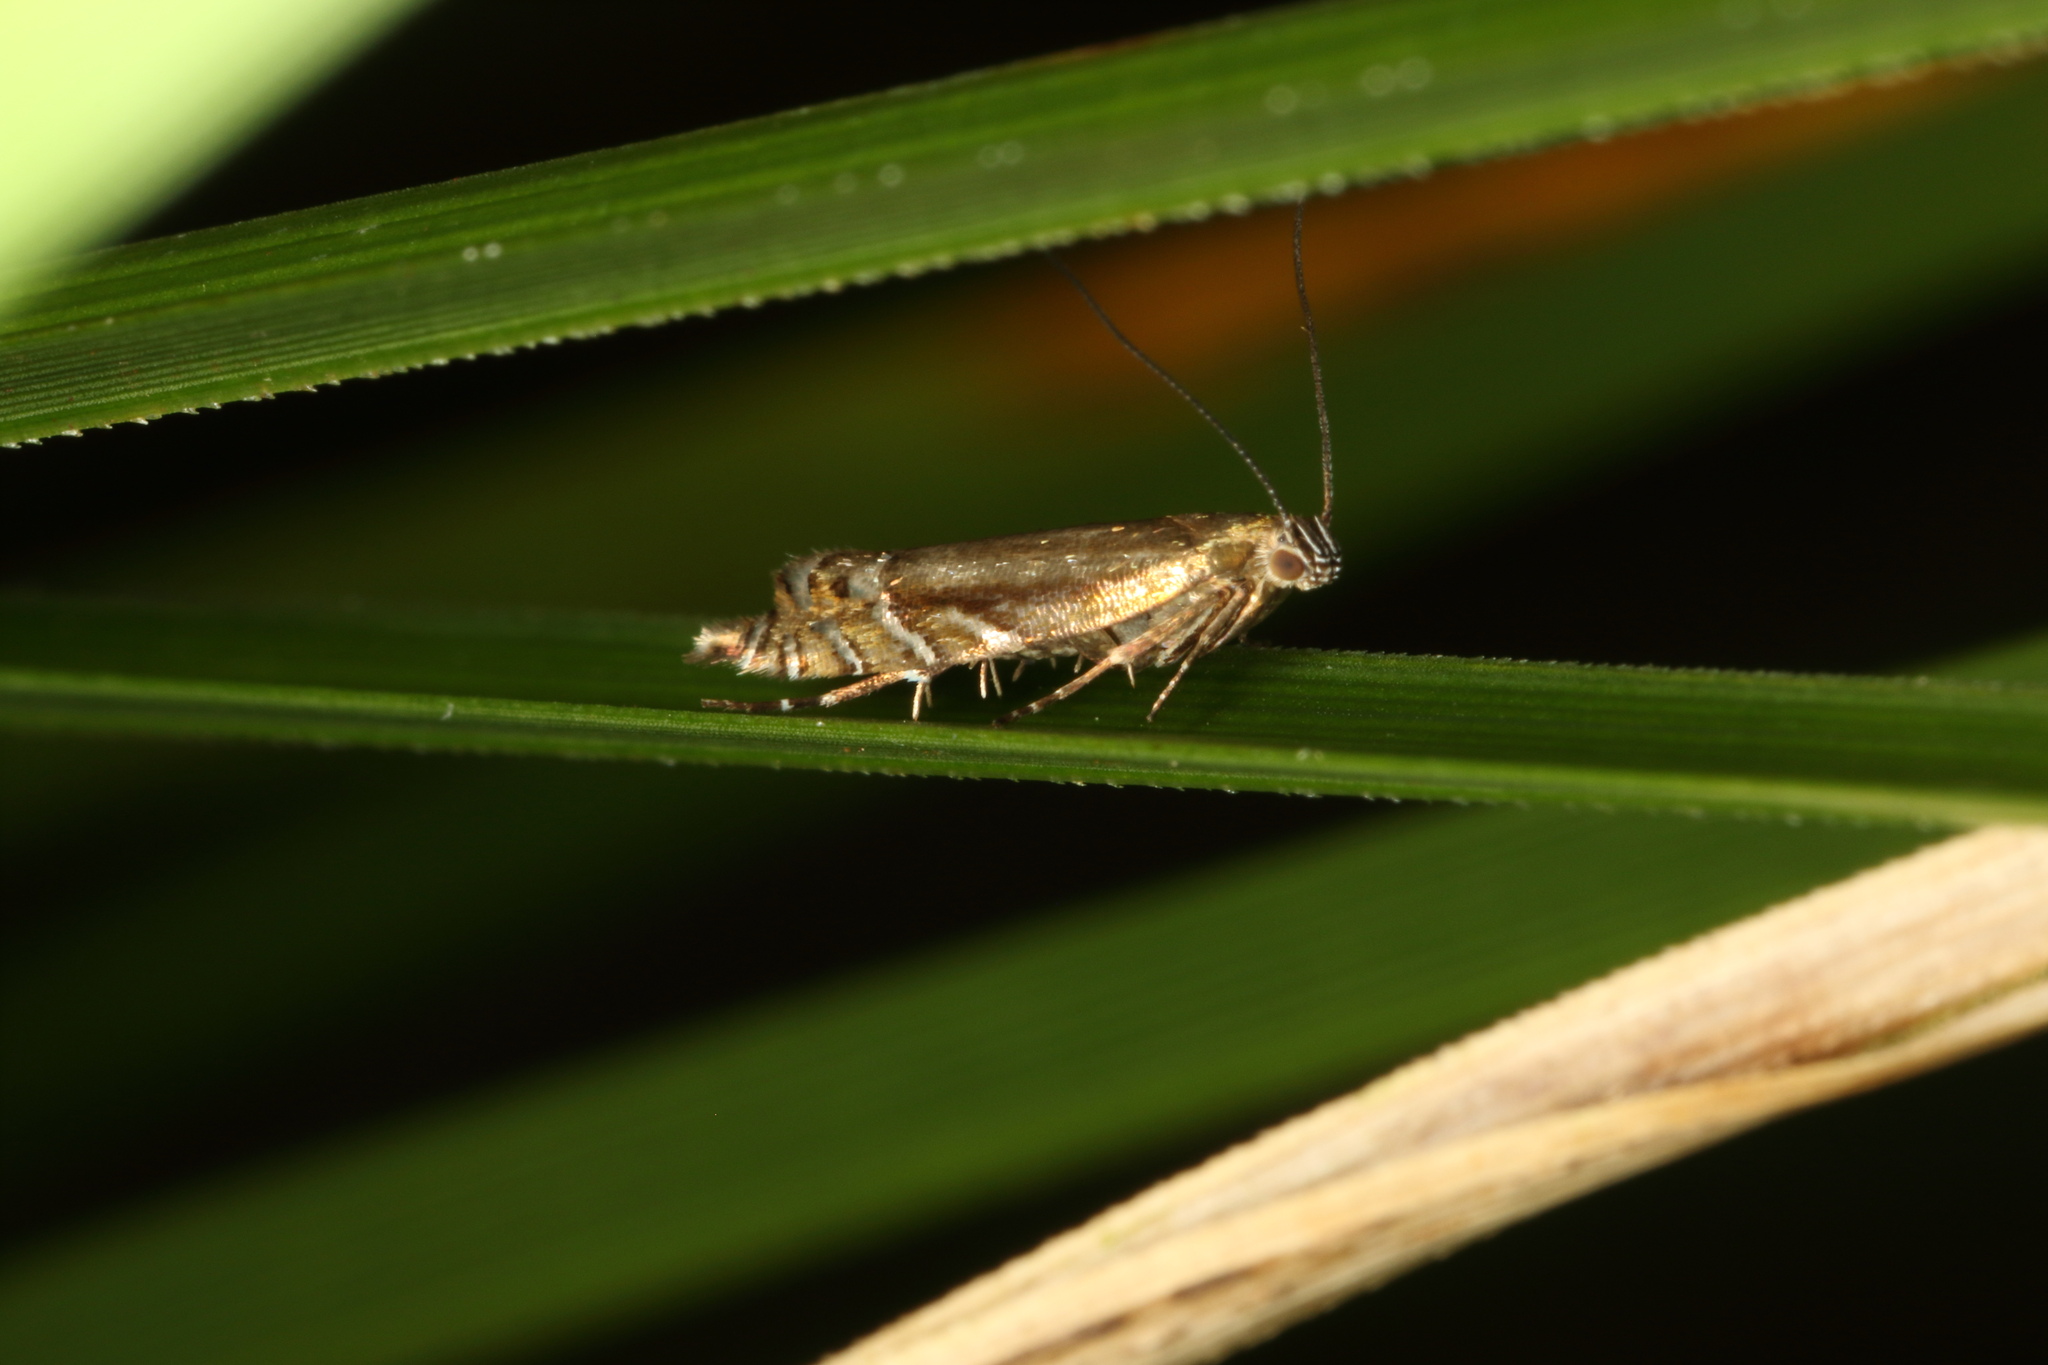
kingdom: Animalia
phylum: Arthropoda
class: Insecta
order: Lepidoptera
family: Glyphipterigidae
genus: Glyphipterix
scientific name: Glyphipterix scintilella
